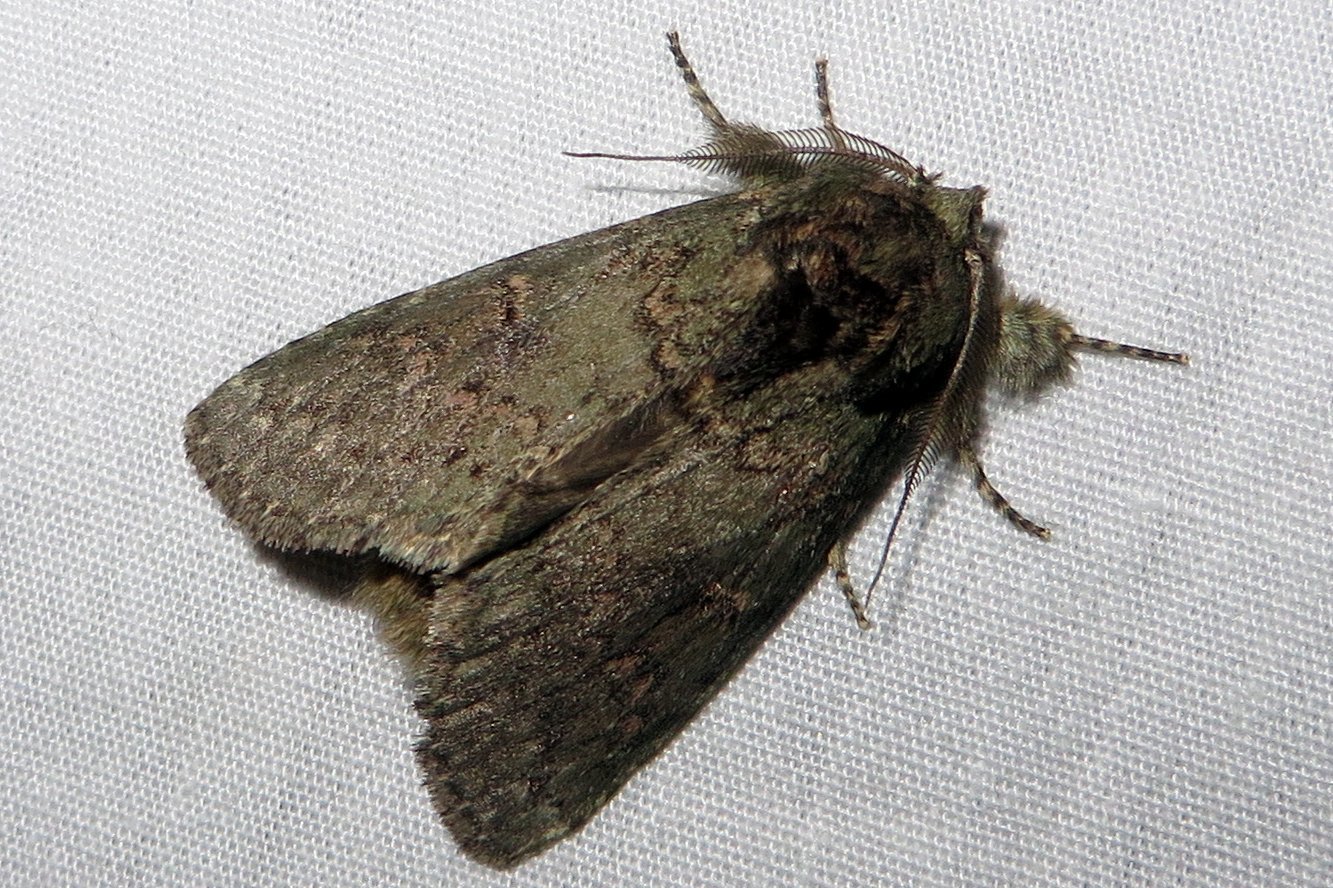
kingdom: Animalia
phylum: Arthropoda
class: Insecta
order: Lepidoptera
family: Notodontidae
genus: Disphragis
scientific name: Disphragis Cecrita biundata
